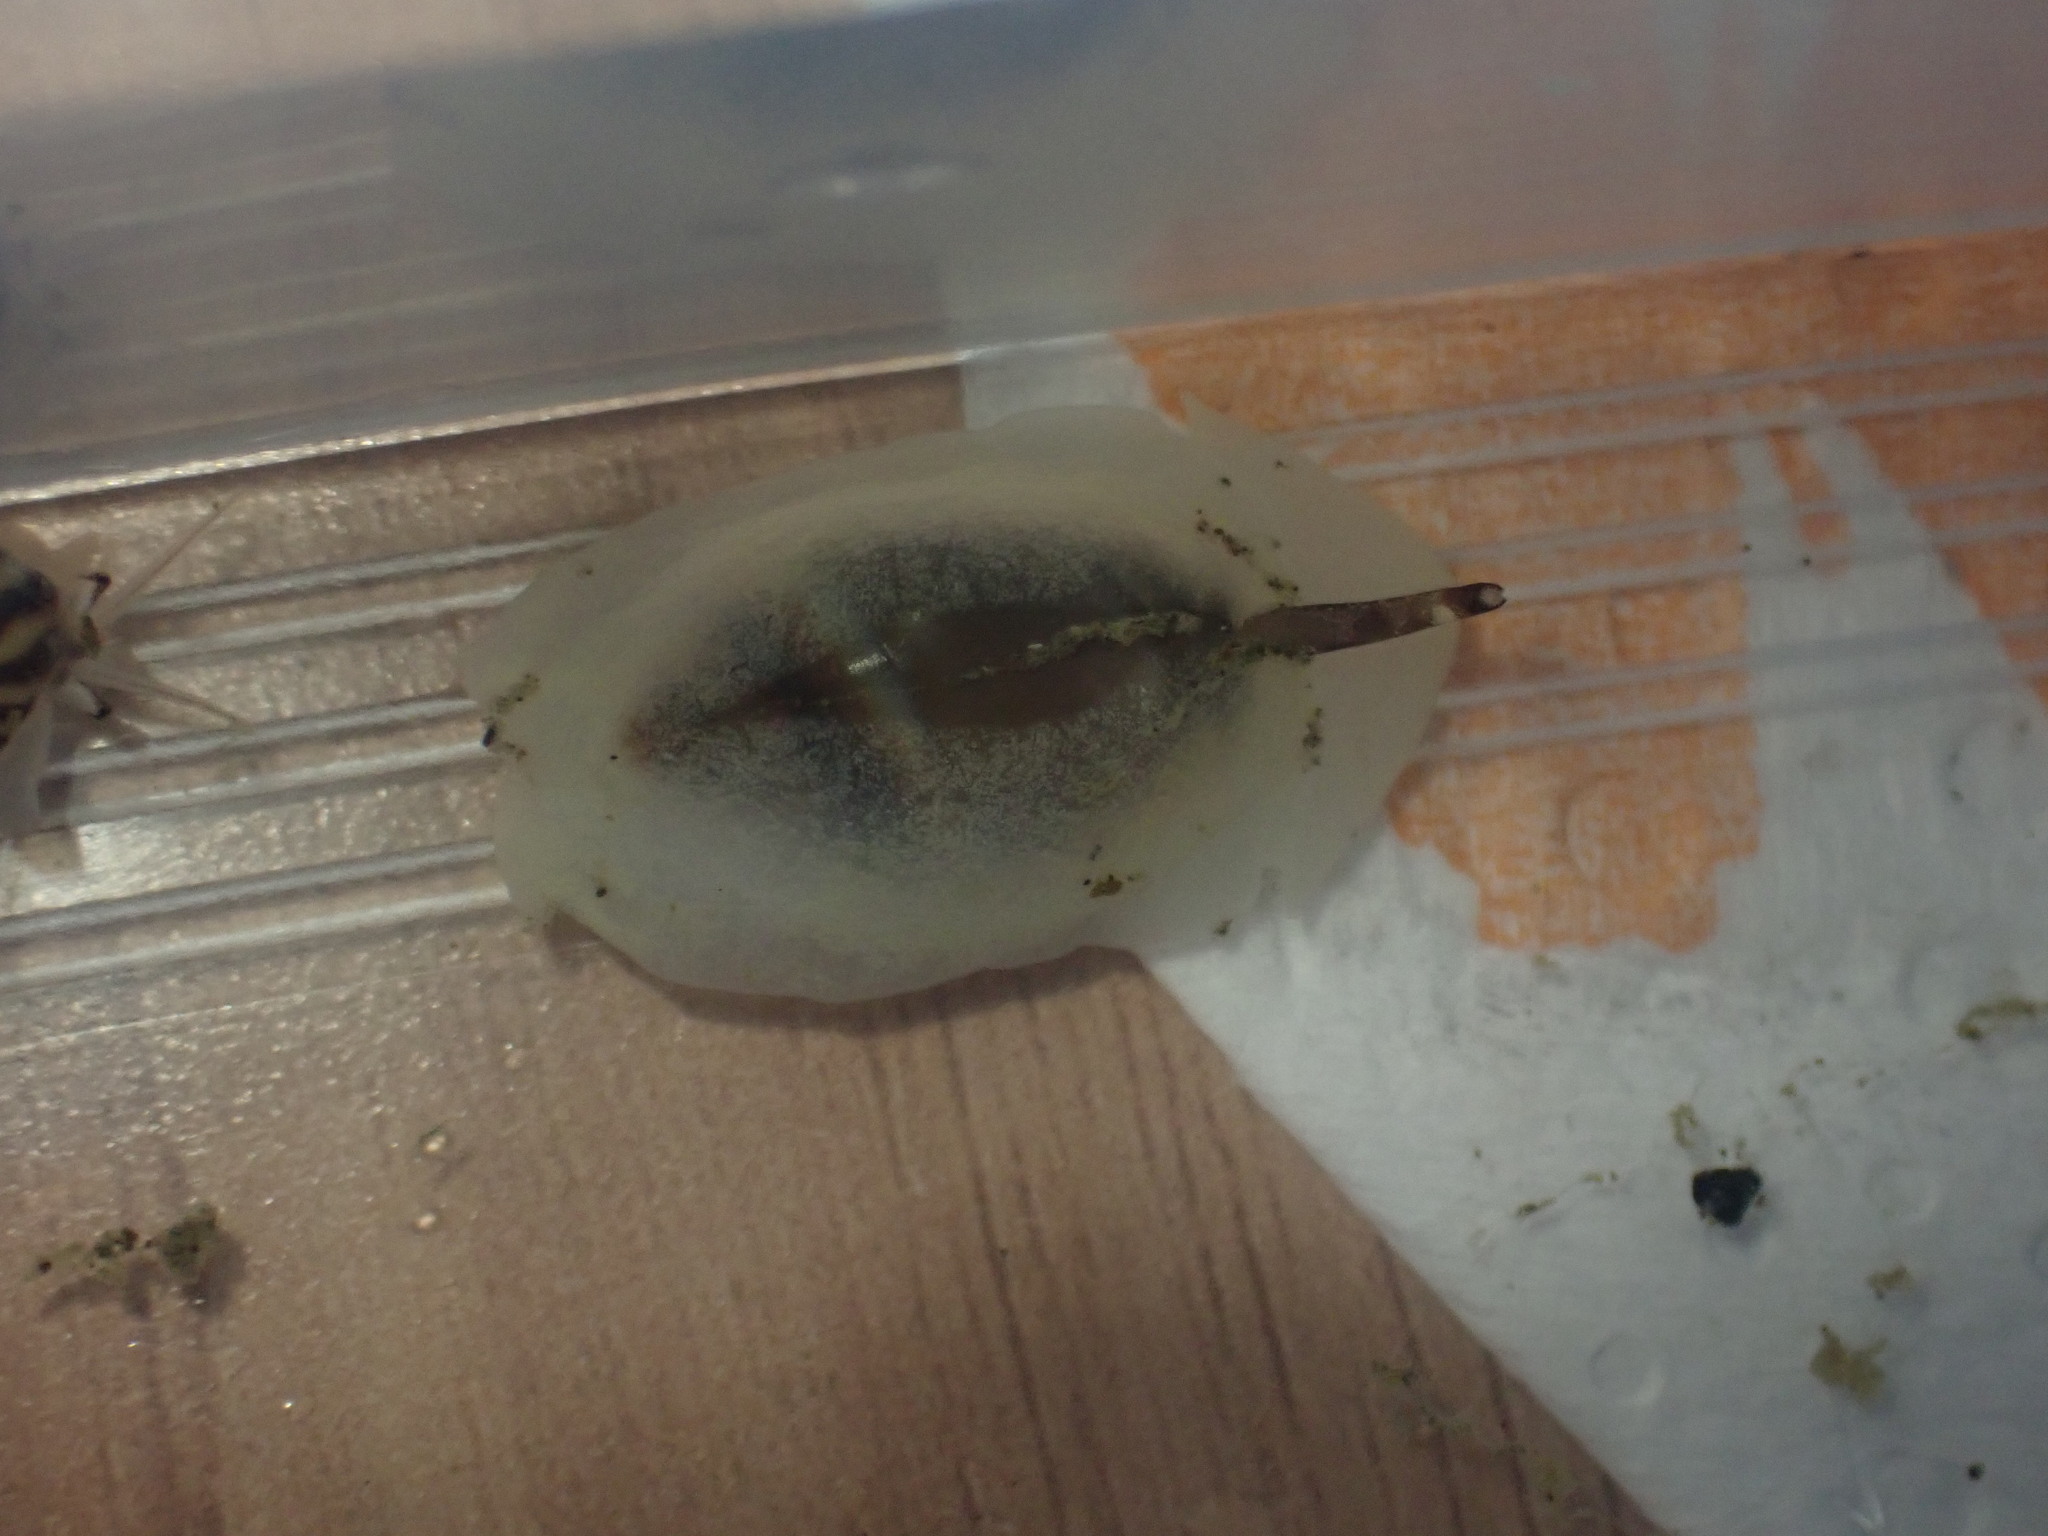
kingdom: Animalia
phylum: Mollusca
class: Gastropoda
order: Neogastropoda
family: Ancillariidae
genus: Amalda
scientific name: Amalda depressa
